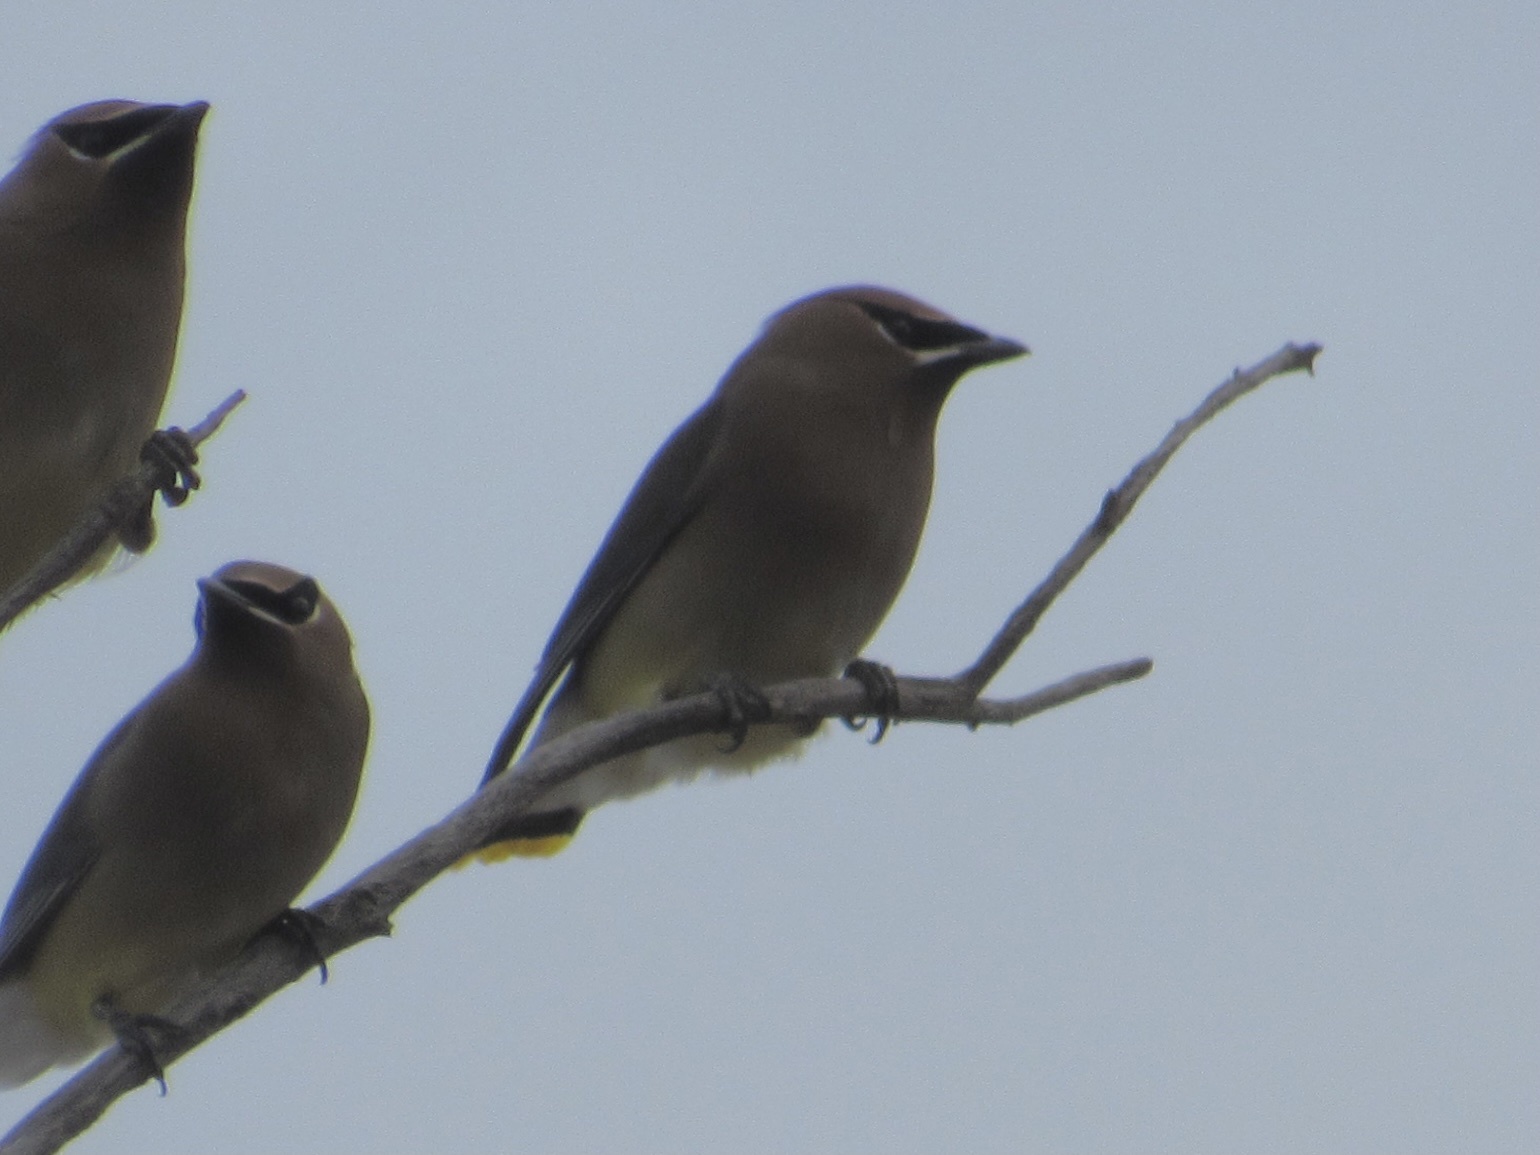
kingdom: Animalia
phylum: Chordata
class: Aves
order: Passeriformes
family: Bombycillidae
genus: Bombycilla
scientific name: Bombycilla cedrorum
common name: Cedar waxwing
